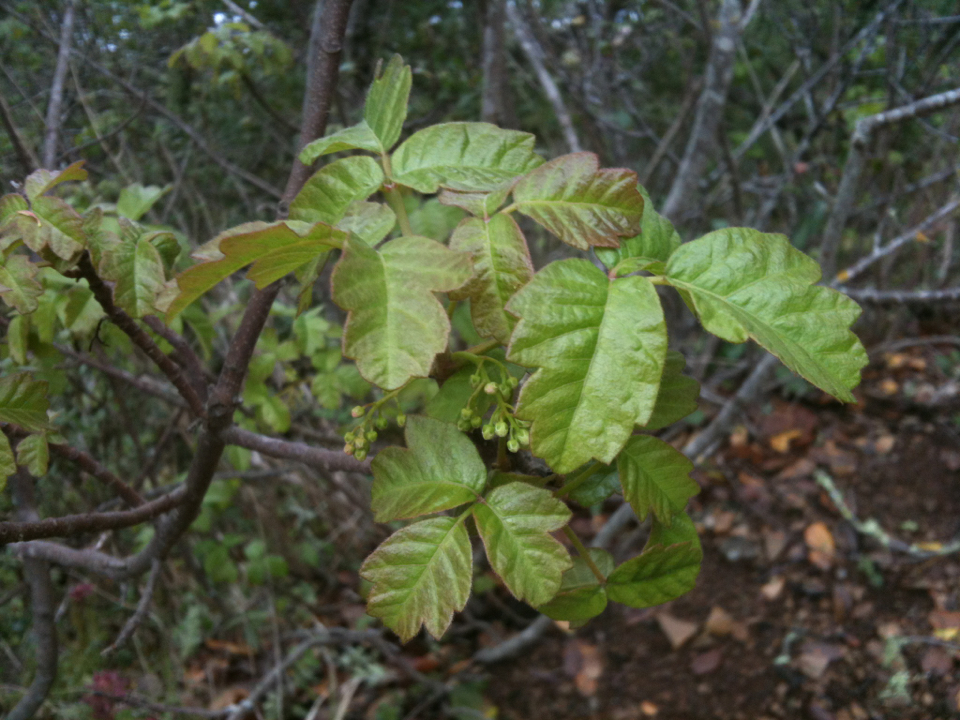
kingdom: Plantae
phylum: Tracheophyta
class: Magnoliopsida
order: Sapindales
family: Anacardiaceae
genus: Toxicodendron
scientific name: Toxicodendron diversilobum
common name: Pacific poison-oak
